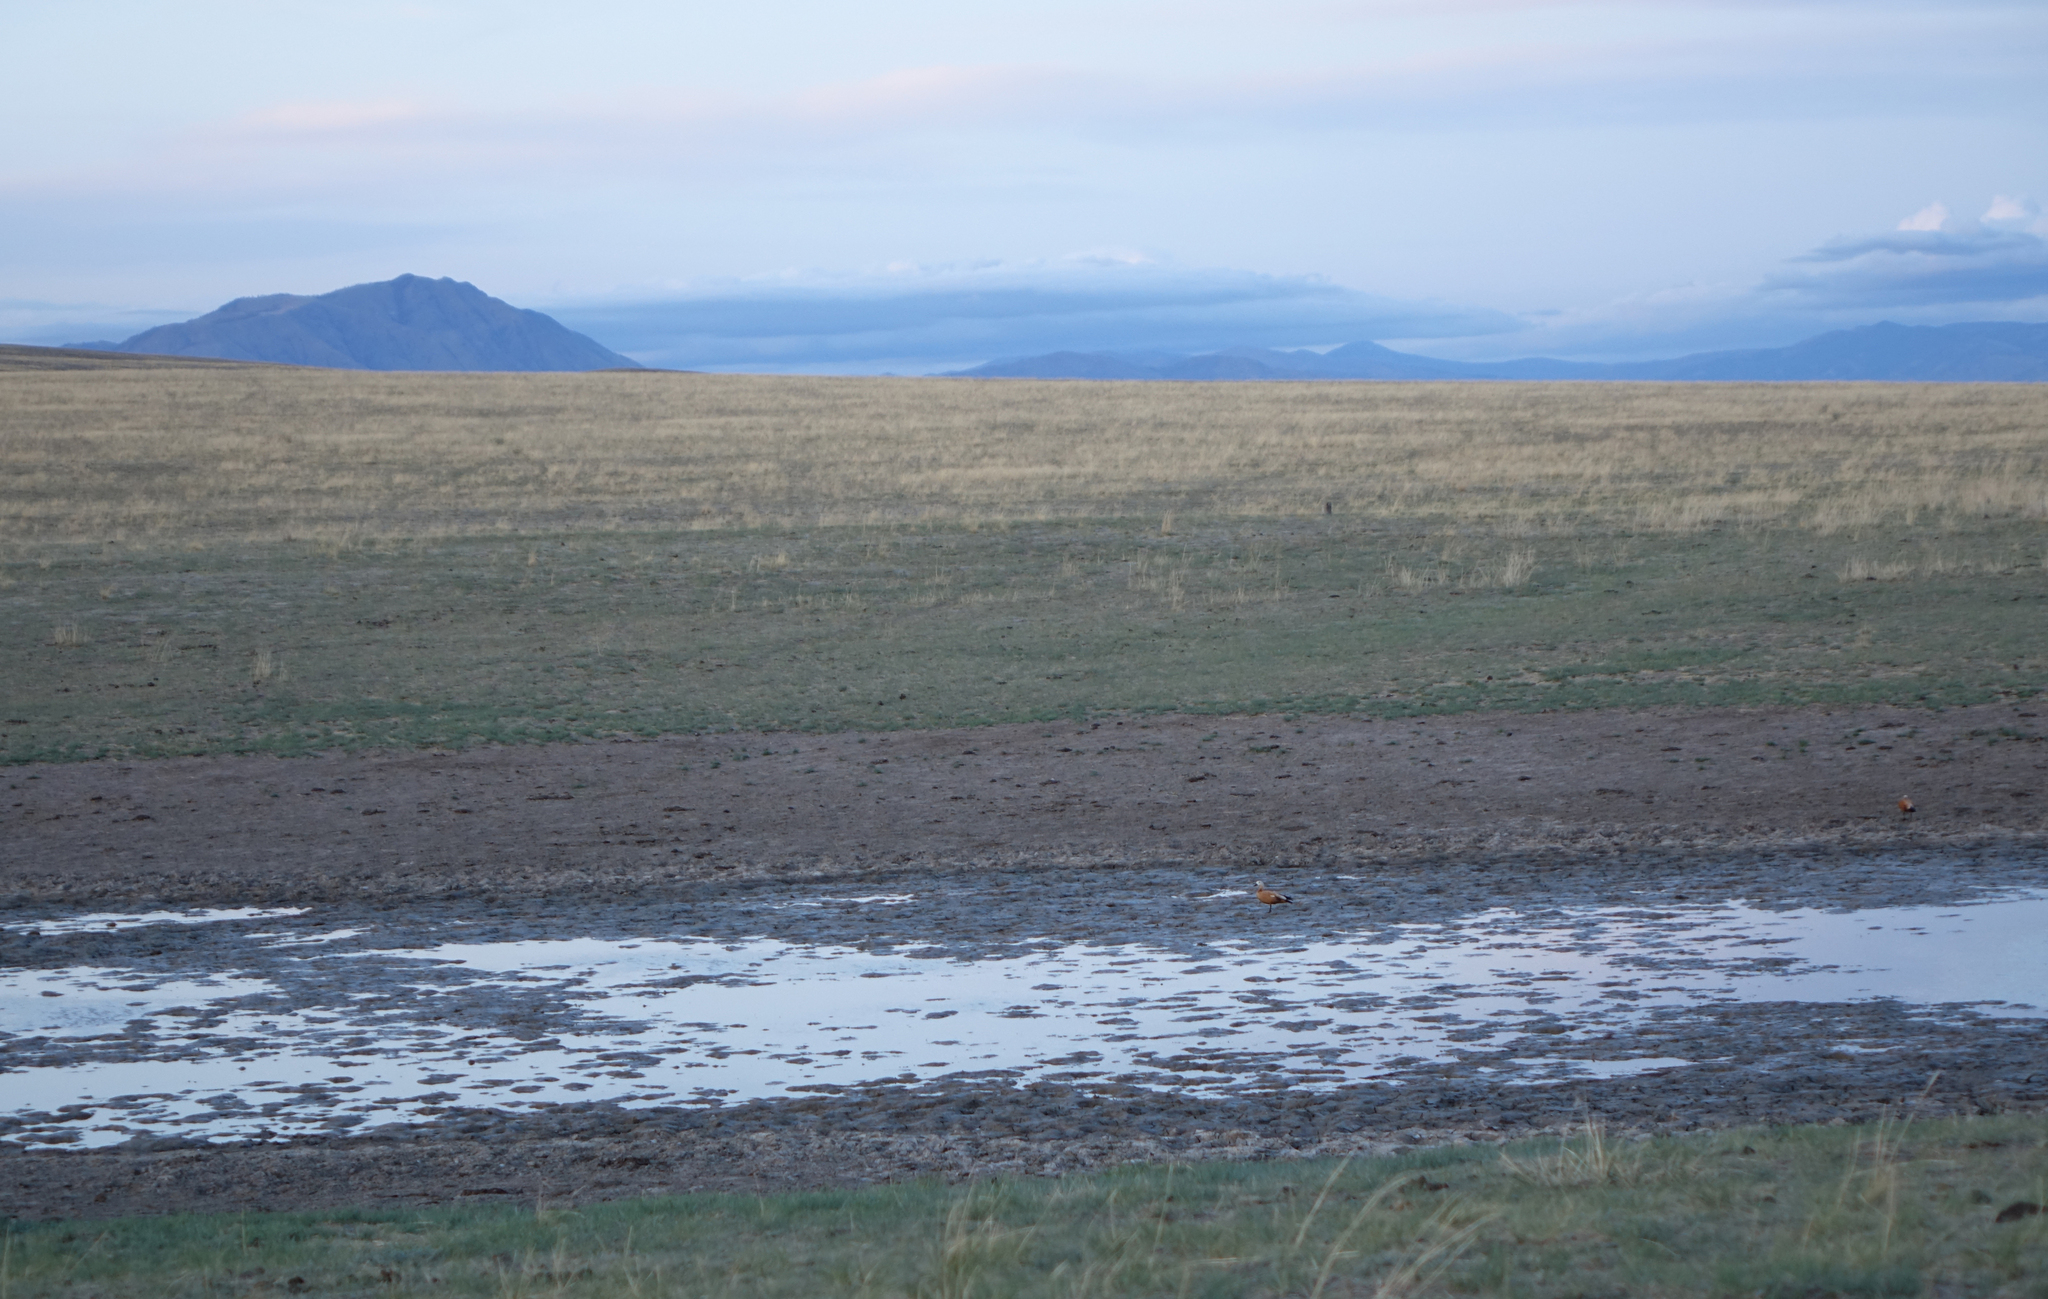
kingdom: Animalia
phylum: Chordata
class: Aves
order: Anseriformes
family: Anatidae
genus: Tadorna
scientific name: Tadorna ferruginea
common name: Ruddy shelduck
